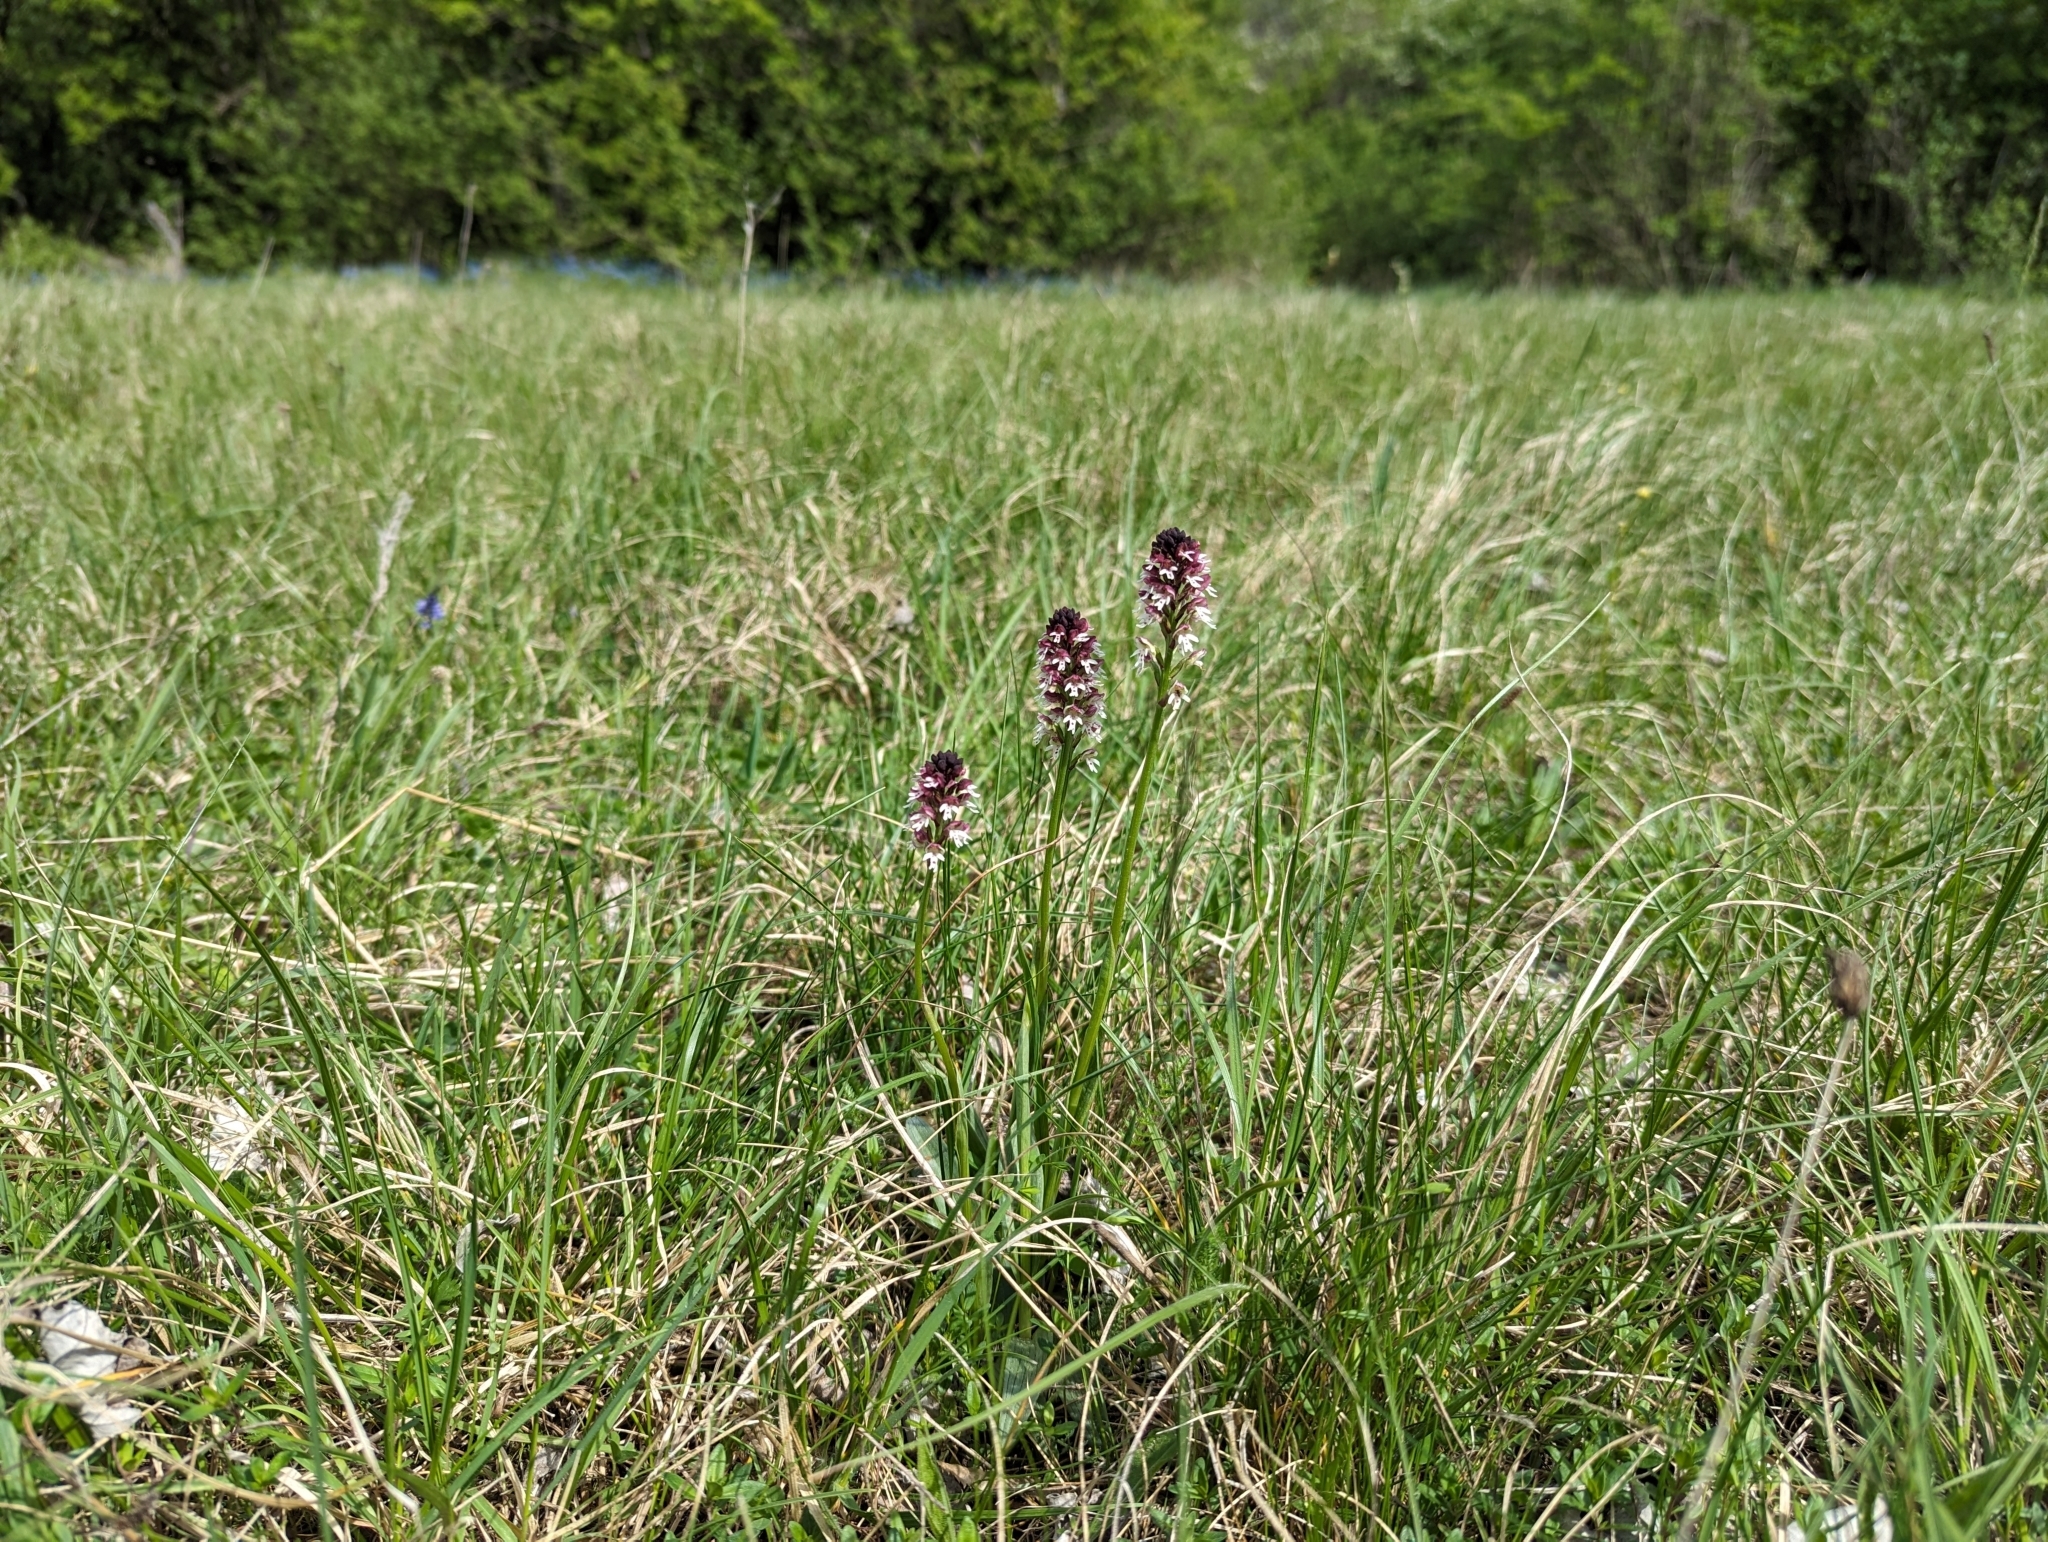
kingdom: Plantae
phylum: Tracheophyta
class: Liliopsida
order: Asparagales
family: Orchidaceae
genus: Neotinea
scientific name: Neotinea ustulata
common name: Burnt orchid
